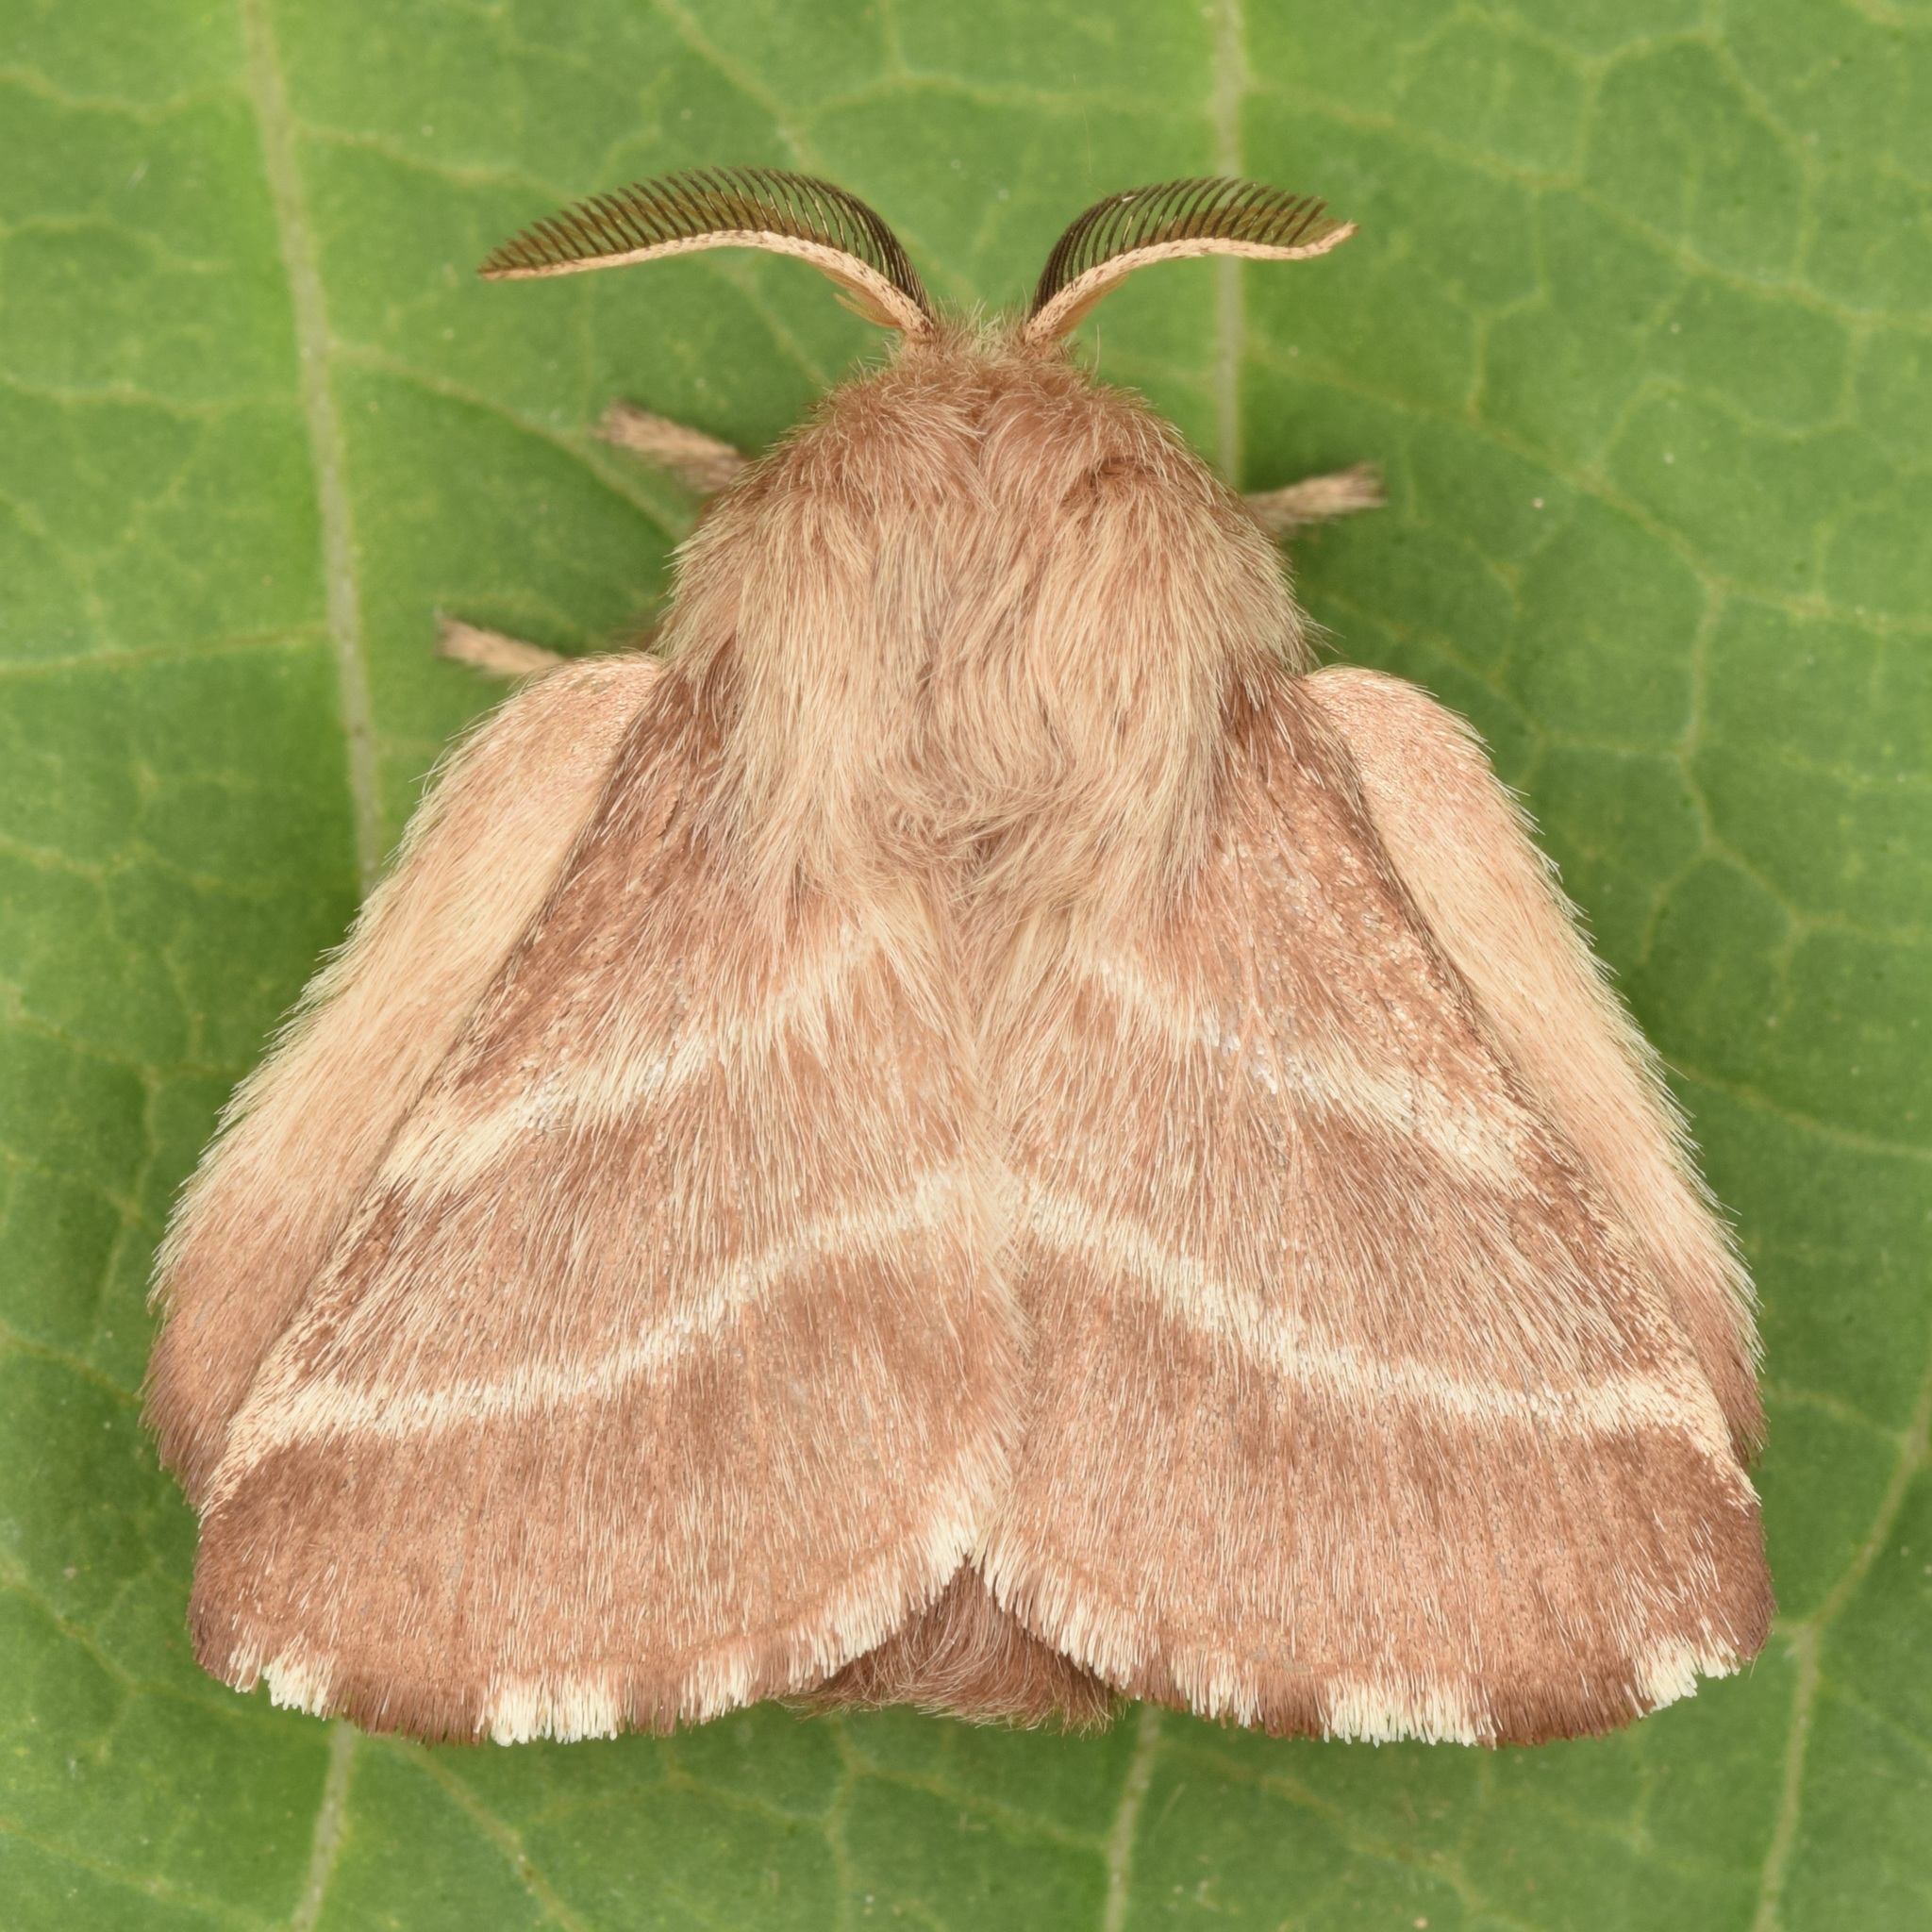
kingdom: Animalia
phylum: Arthropoda
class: Insecta
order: Lepidoptera
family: Lasiocampidae
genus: Malacosoma
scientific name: Malacosoma americana
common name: Eastern tent caterpillar moth
